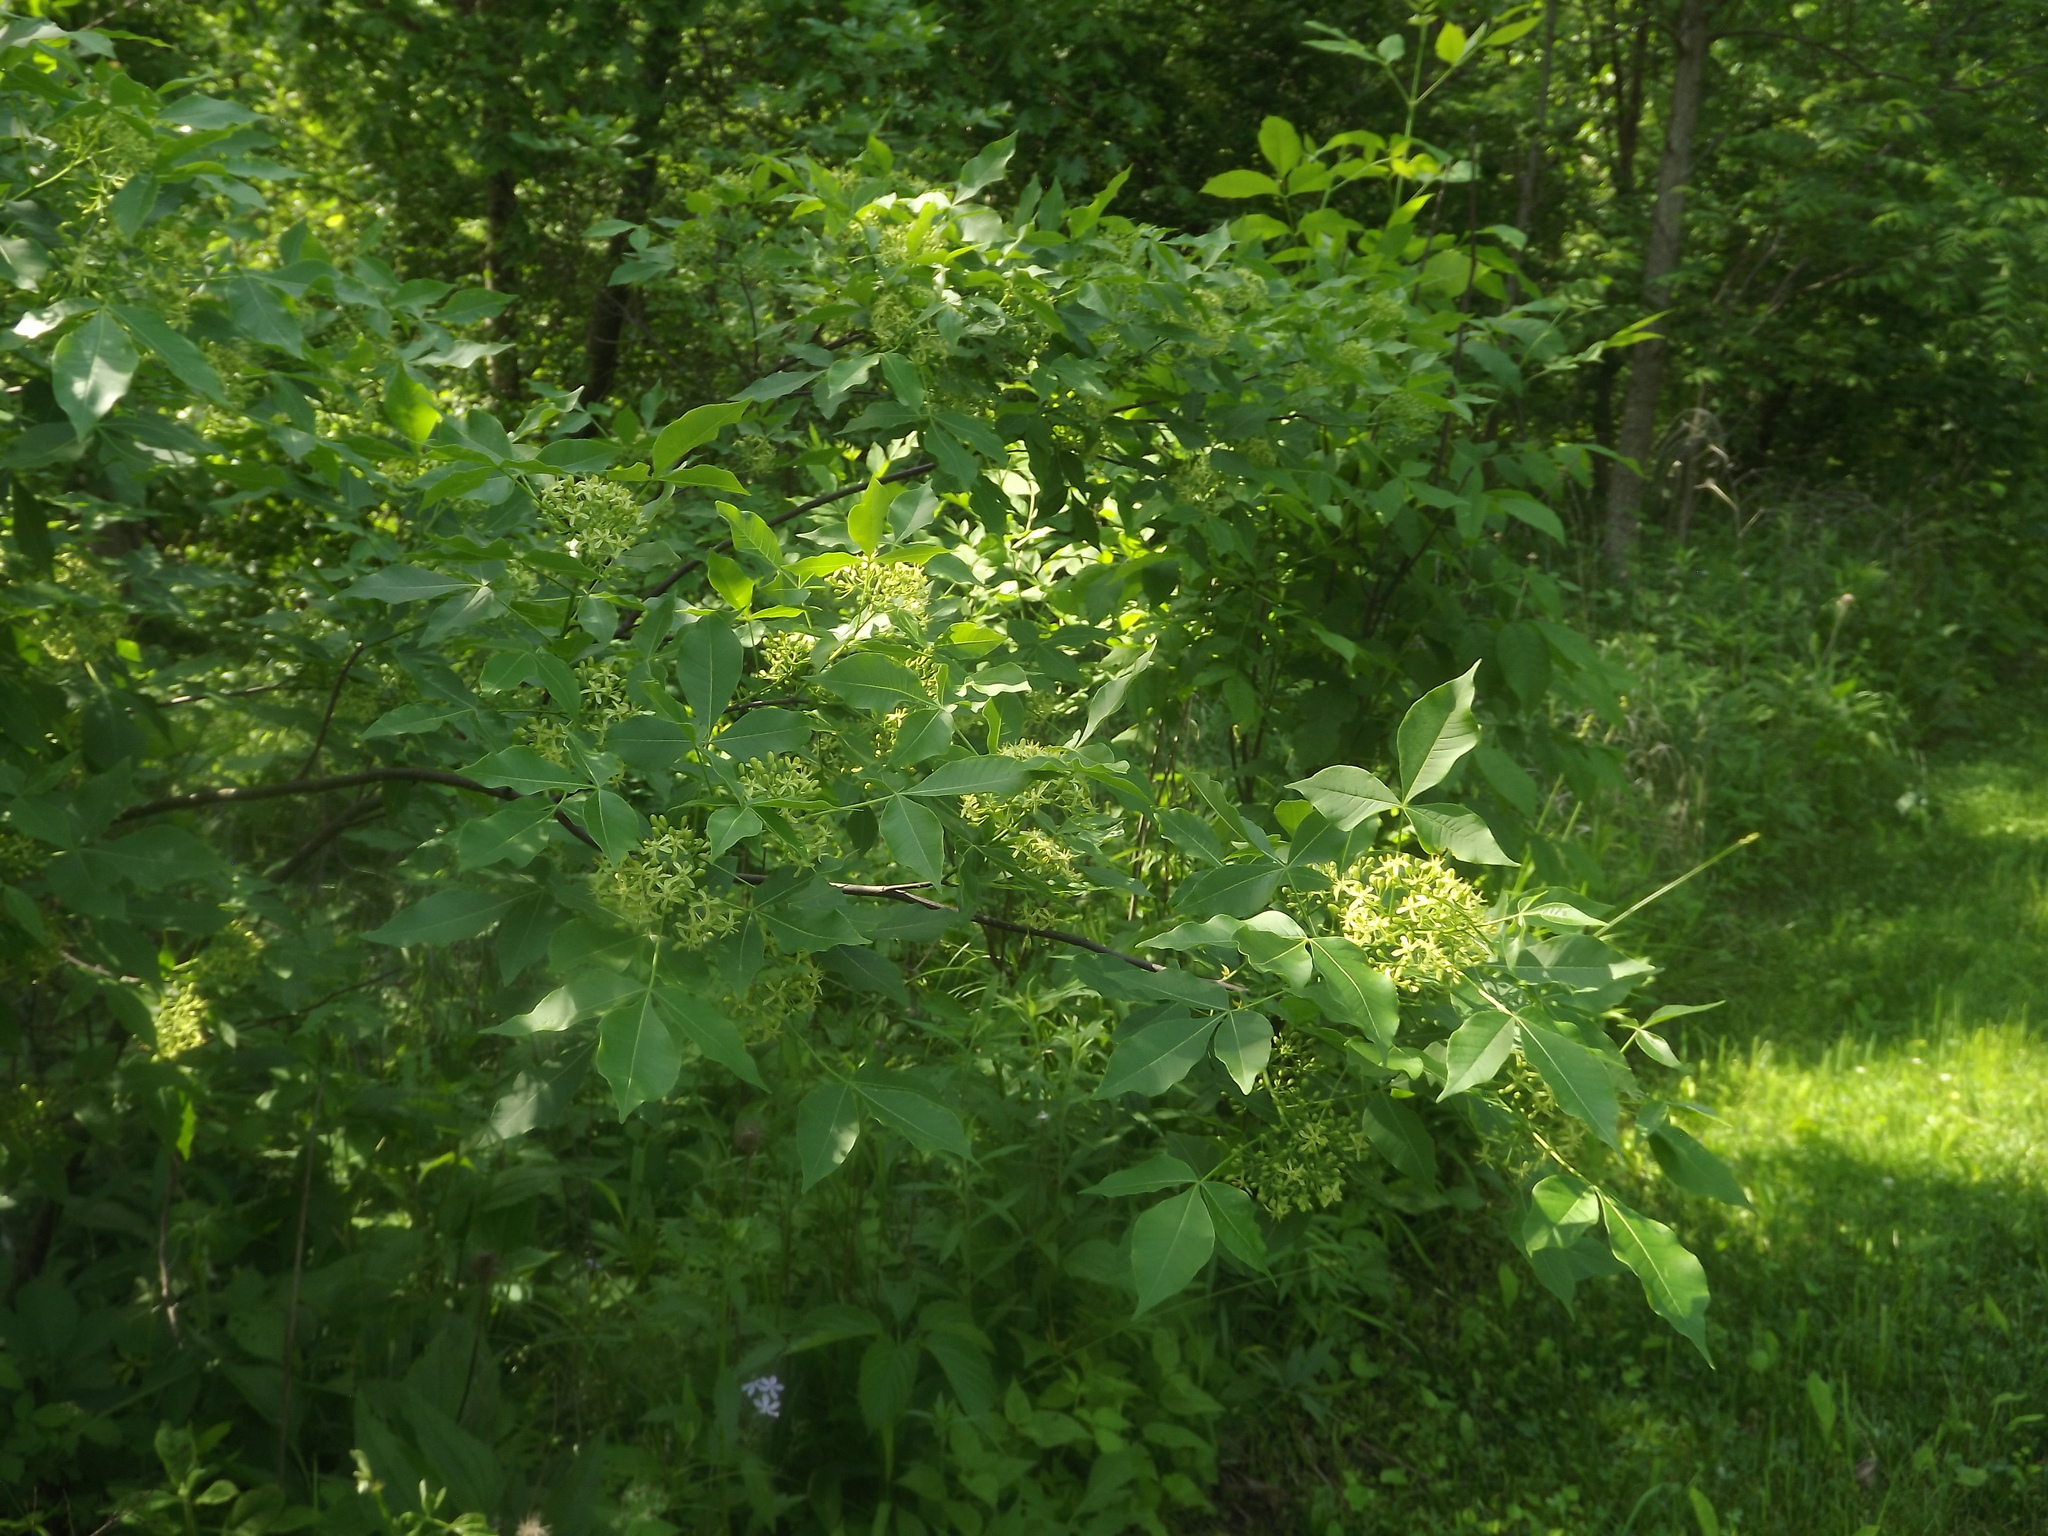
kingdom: Plantae
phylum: Tracheophyta
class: Magnoliopsida
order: Sapindales
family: Rutaceae
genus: Ptelea
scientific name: Ptelea trifoliata
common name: Common hop-tree
